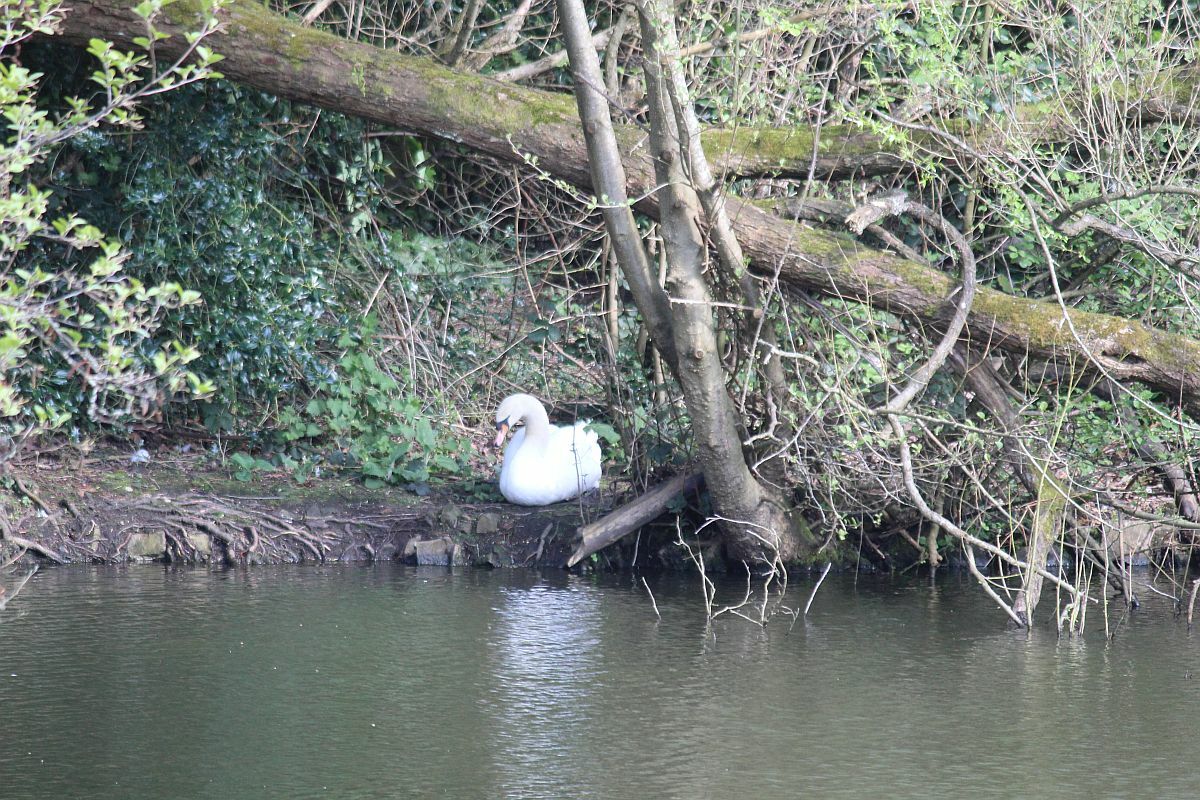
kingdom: Animalia
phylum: Chordata
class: Aves
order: Anseriformes
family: Anatidae
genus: Cygnus
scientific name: Cygnus olor
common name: Mute swan
